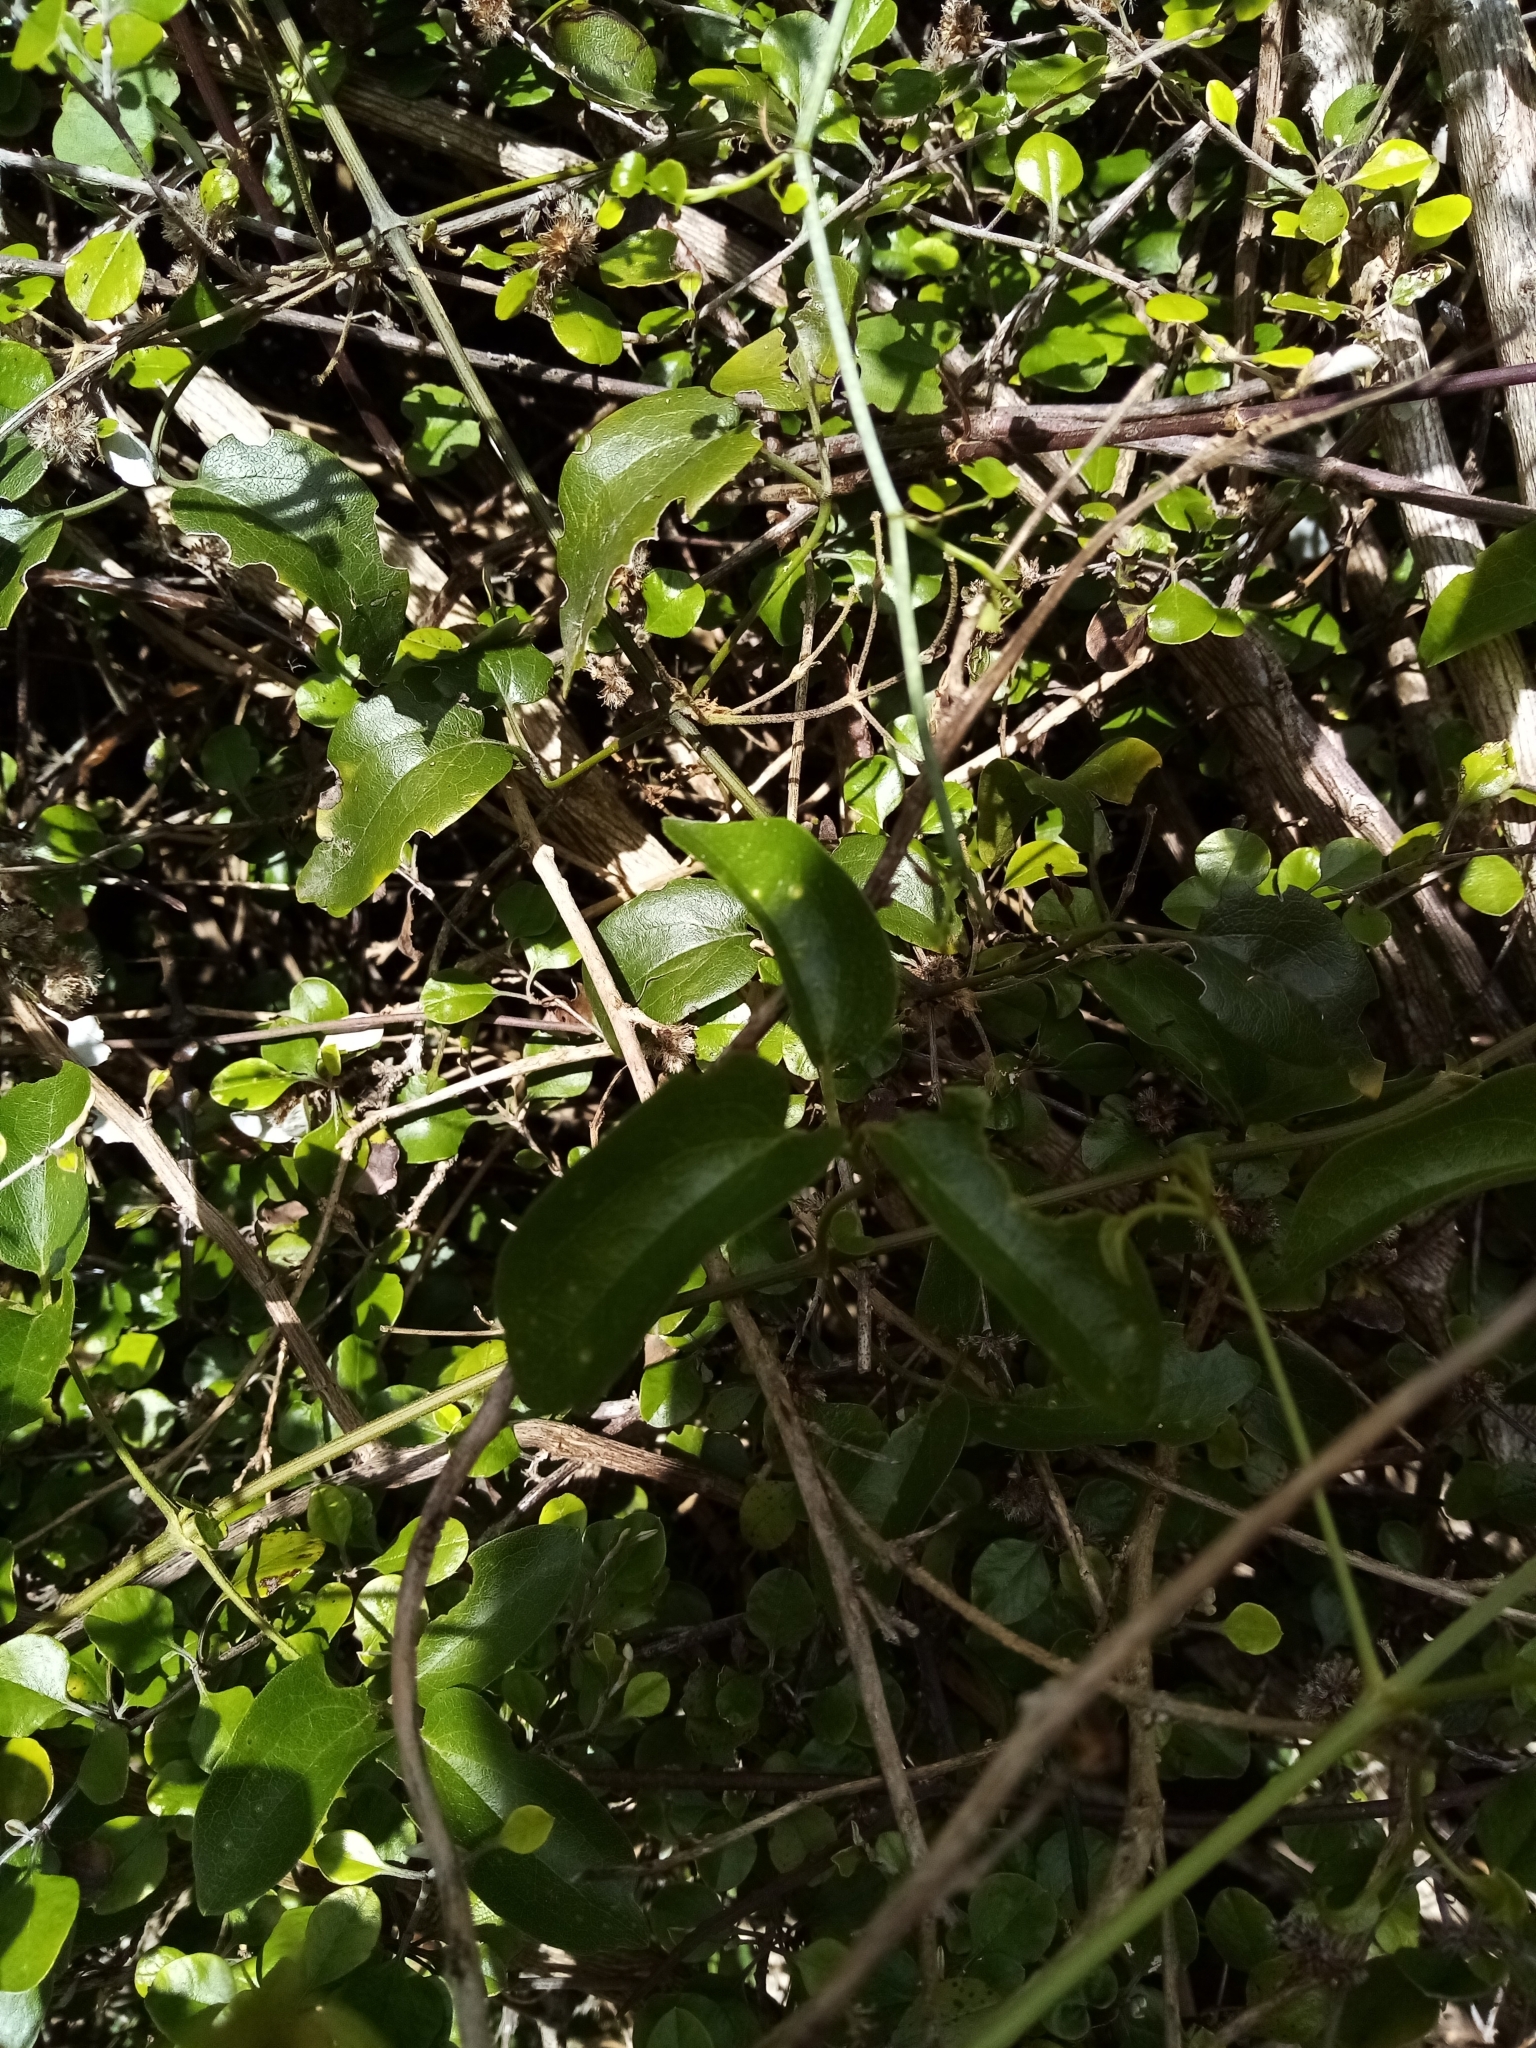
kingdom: Plantae
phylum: Tracheophyta
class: Magnoliopsida
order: Ranunculales
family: Ranunculaceae
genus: Clematis
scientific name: Clematis paniculata
